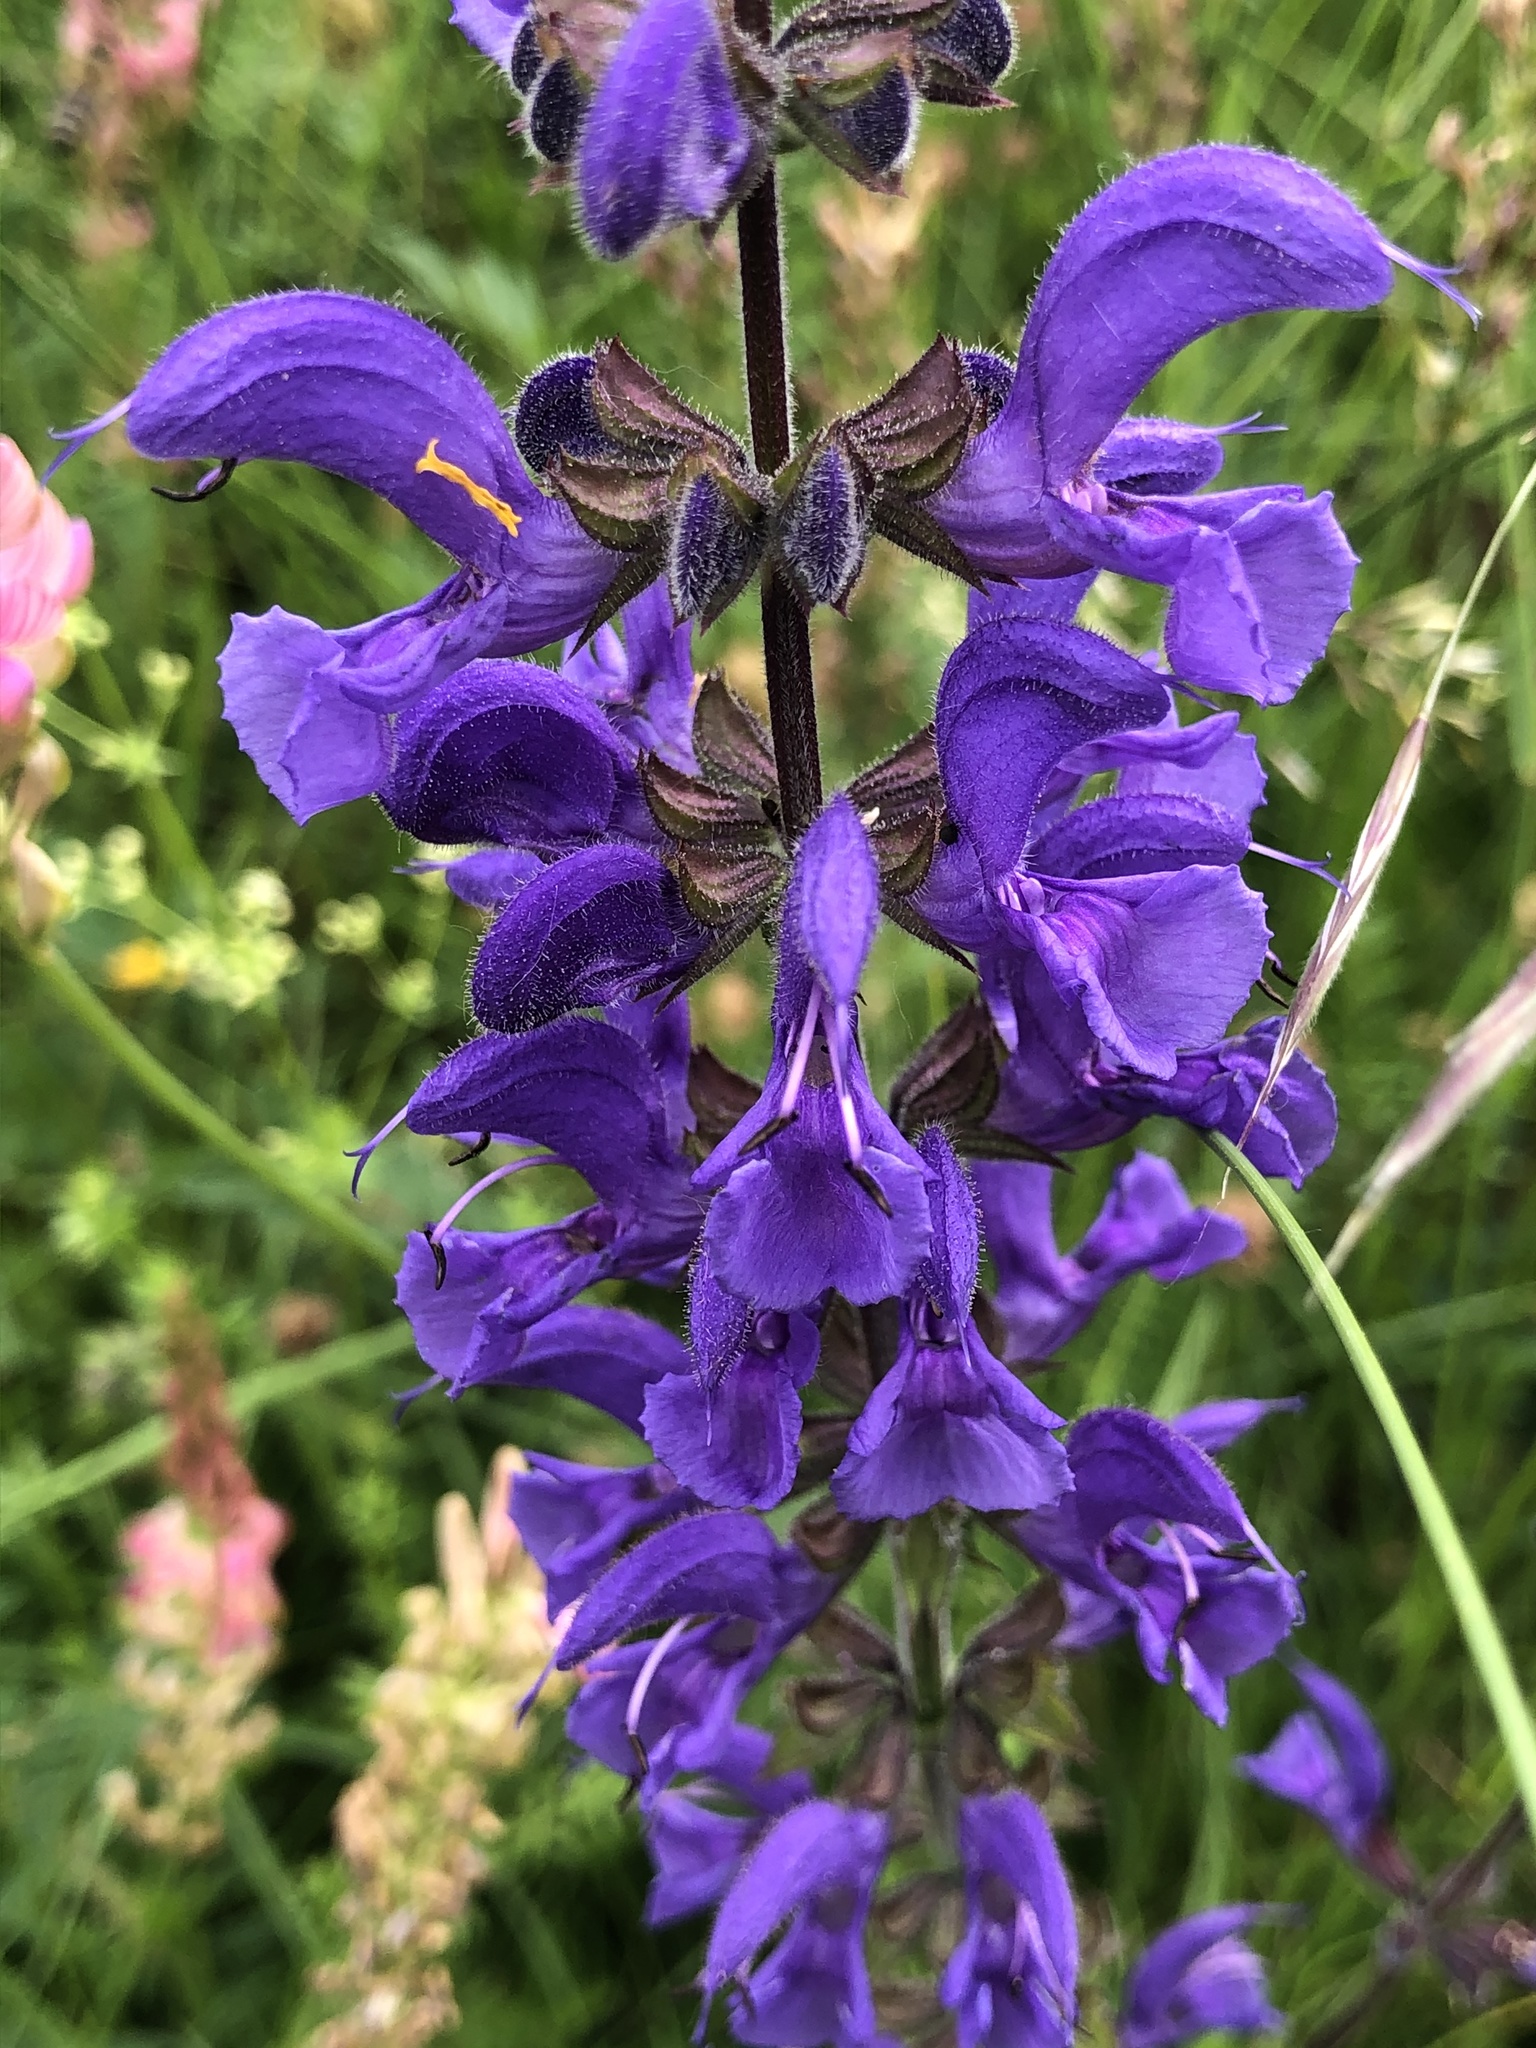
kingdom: Plantae
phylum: Tracheophyta
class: Magnoliopsida
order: Lamiales
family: Lamiaceae
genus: Salvia
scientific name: Salvia pratensis
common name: Meadow sage
